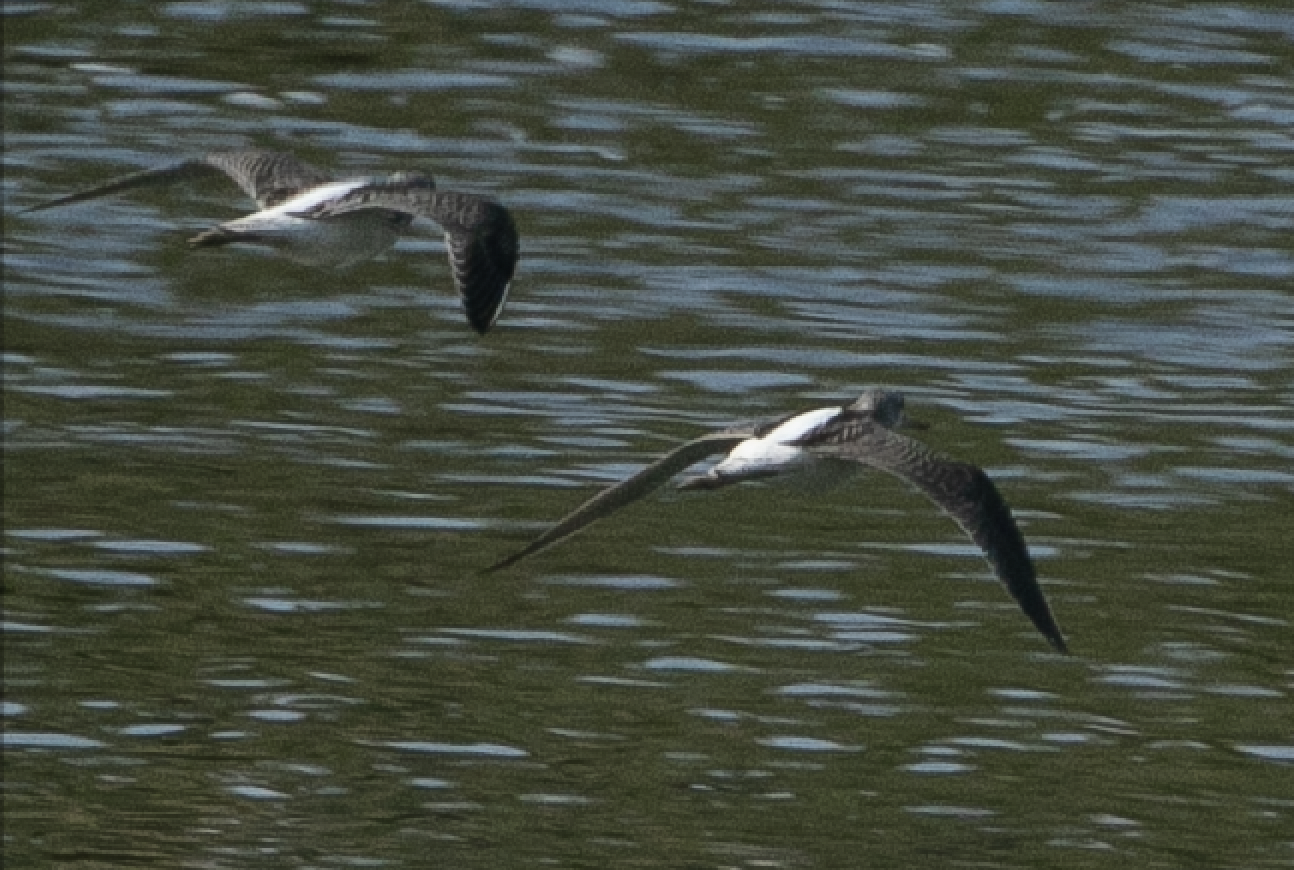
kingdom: Animalia
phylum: Chordata
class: Aves
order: Charadriiformes
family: Scolopacidae
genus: Tringa
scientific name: Tringa nebularia
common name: Common greenshank
